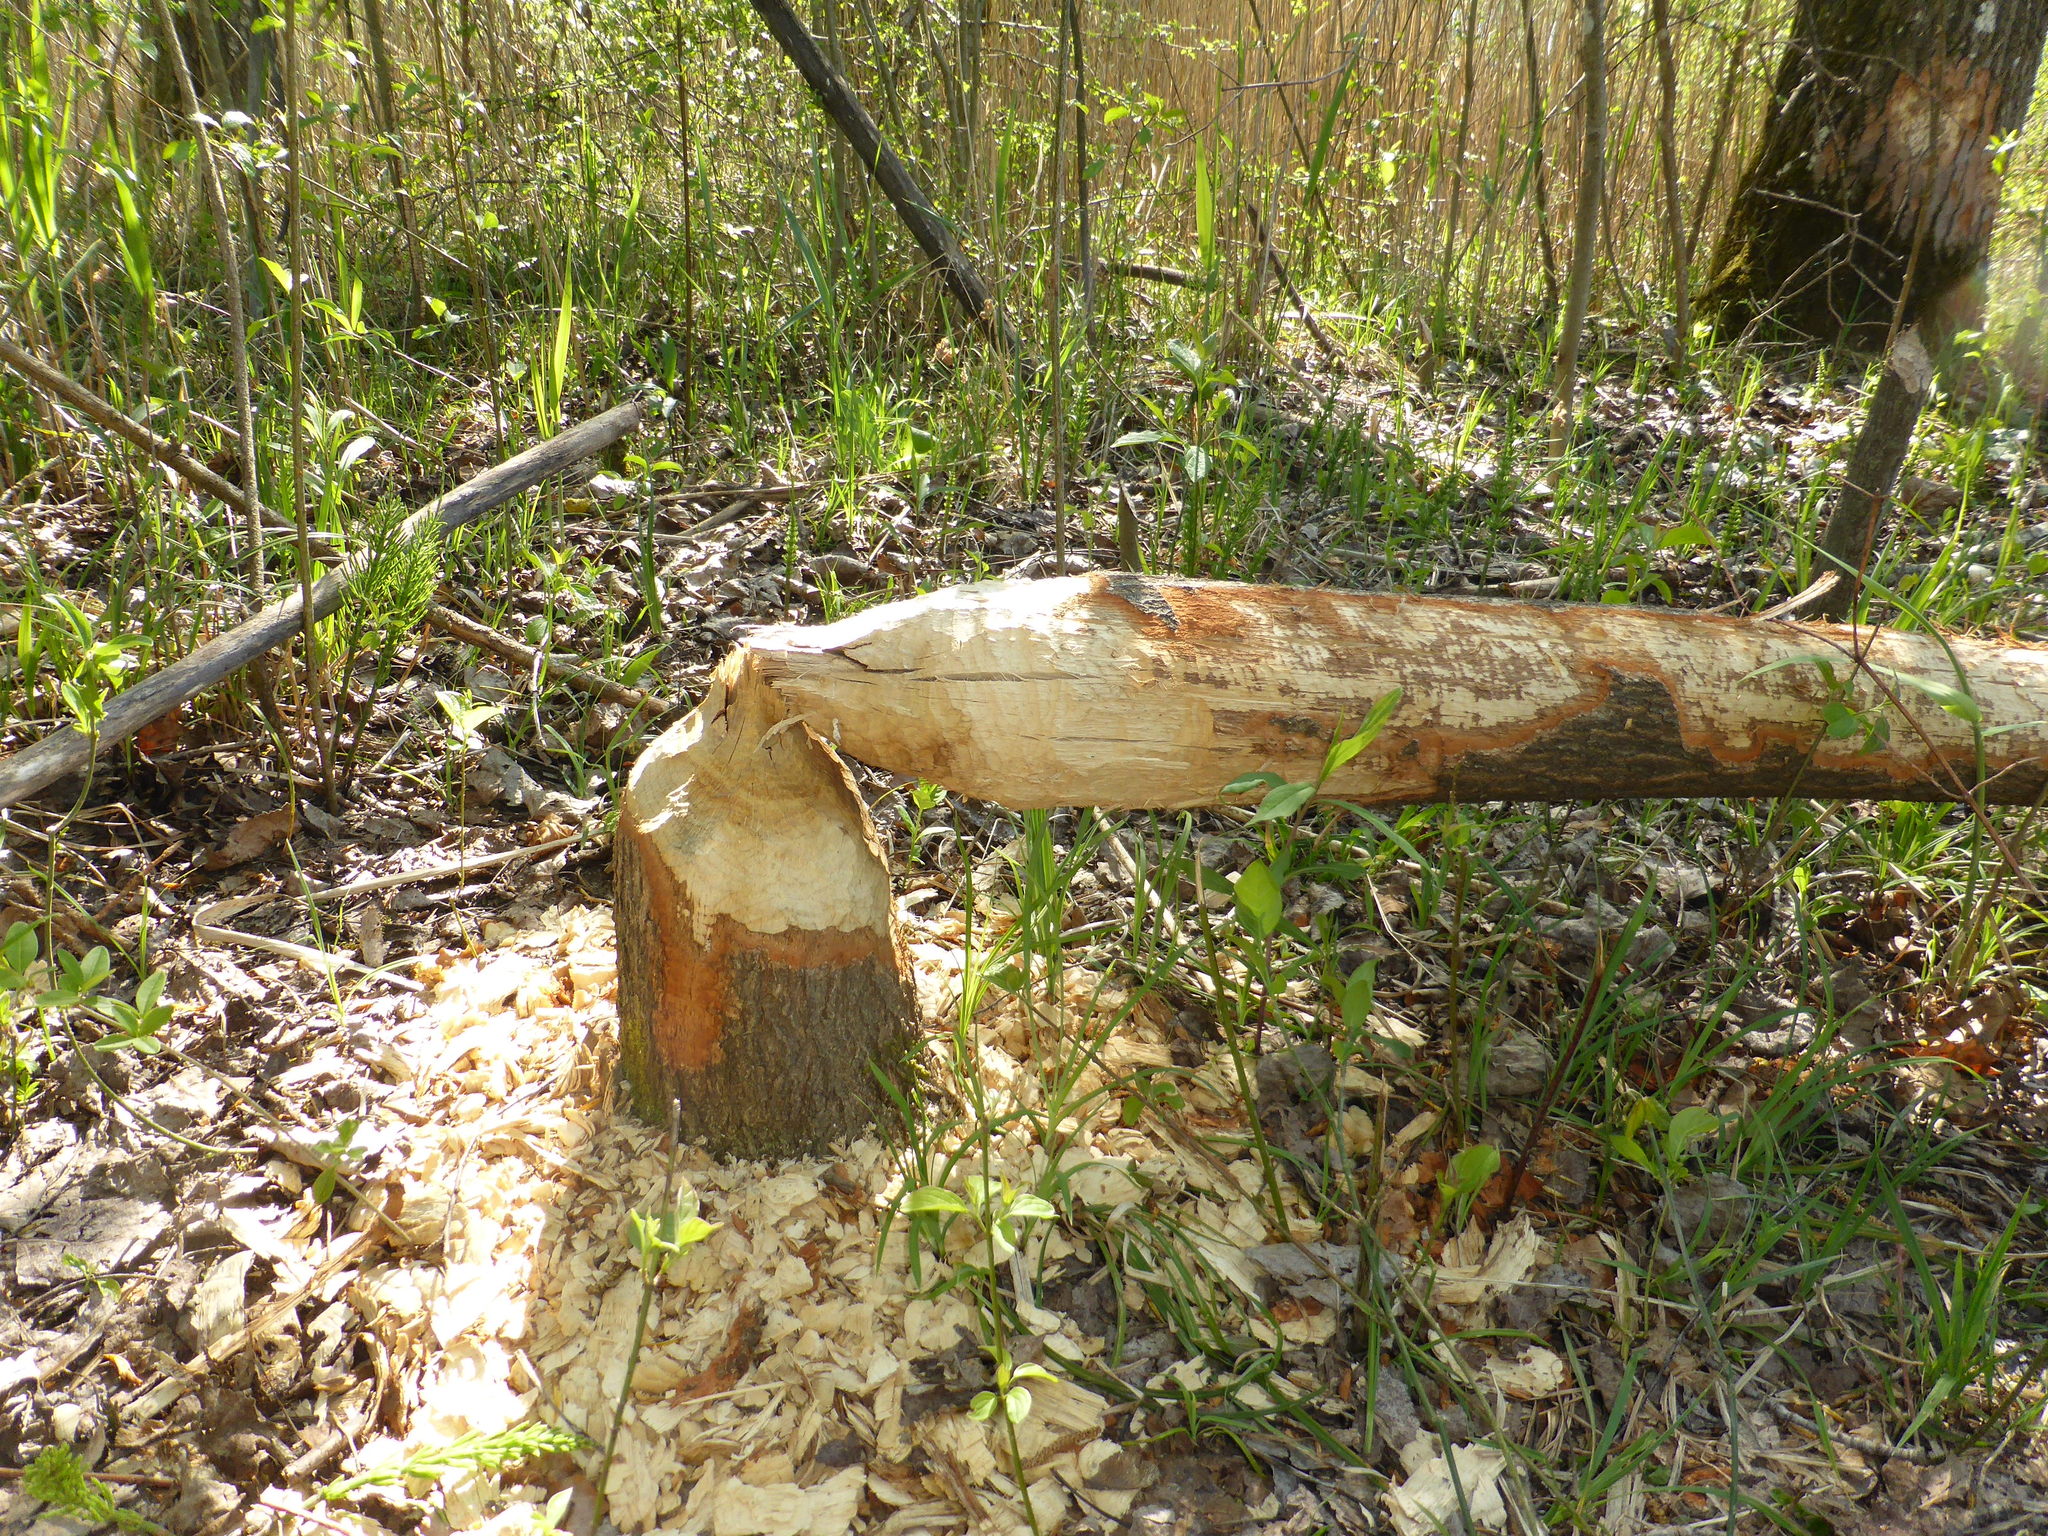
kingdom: Animalia
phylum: Chordata
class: Mammalia
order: Rodentia
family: Castoridae
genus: Castor
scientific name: Castor fiber
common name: Eurasian beaver
